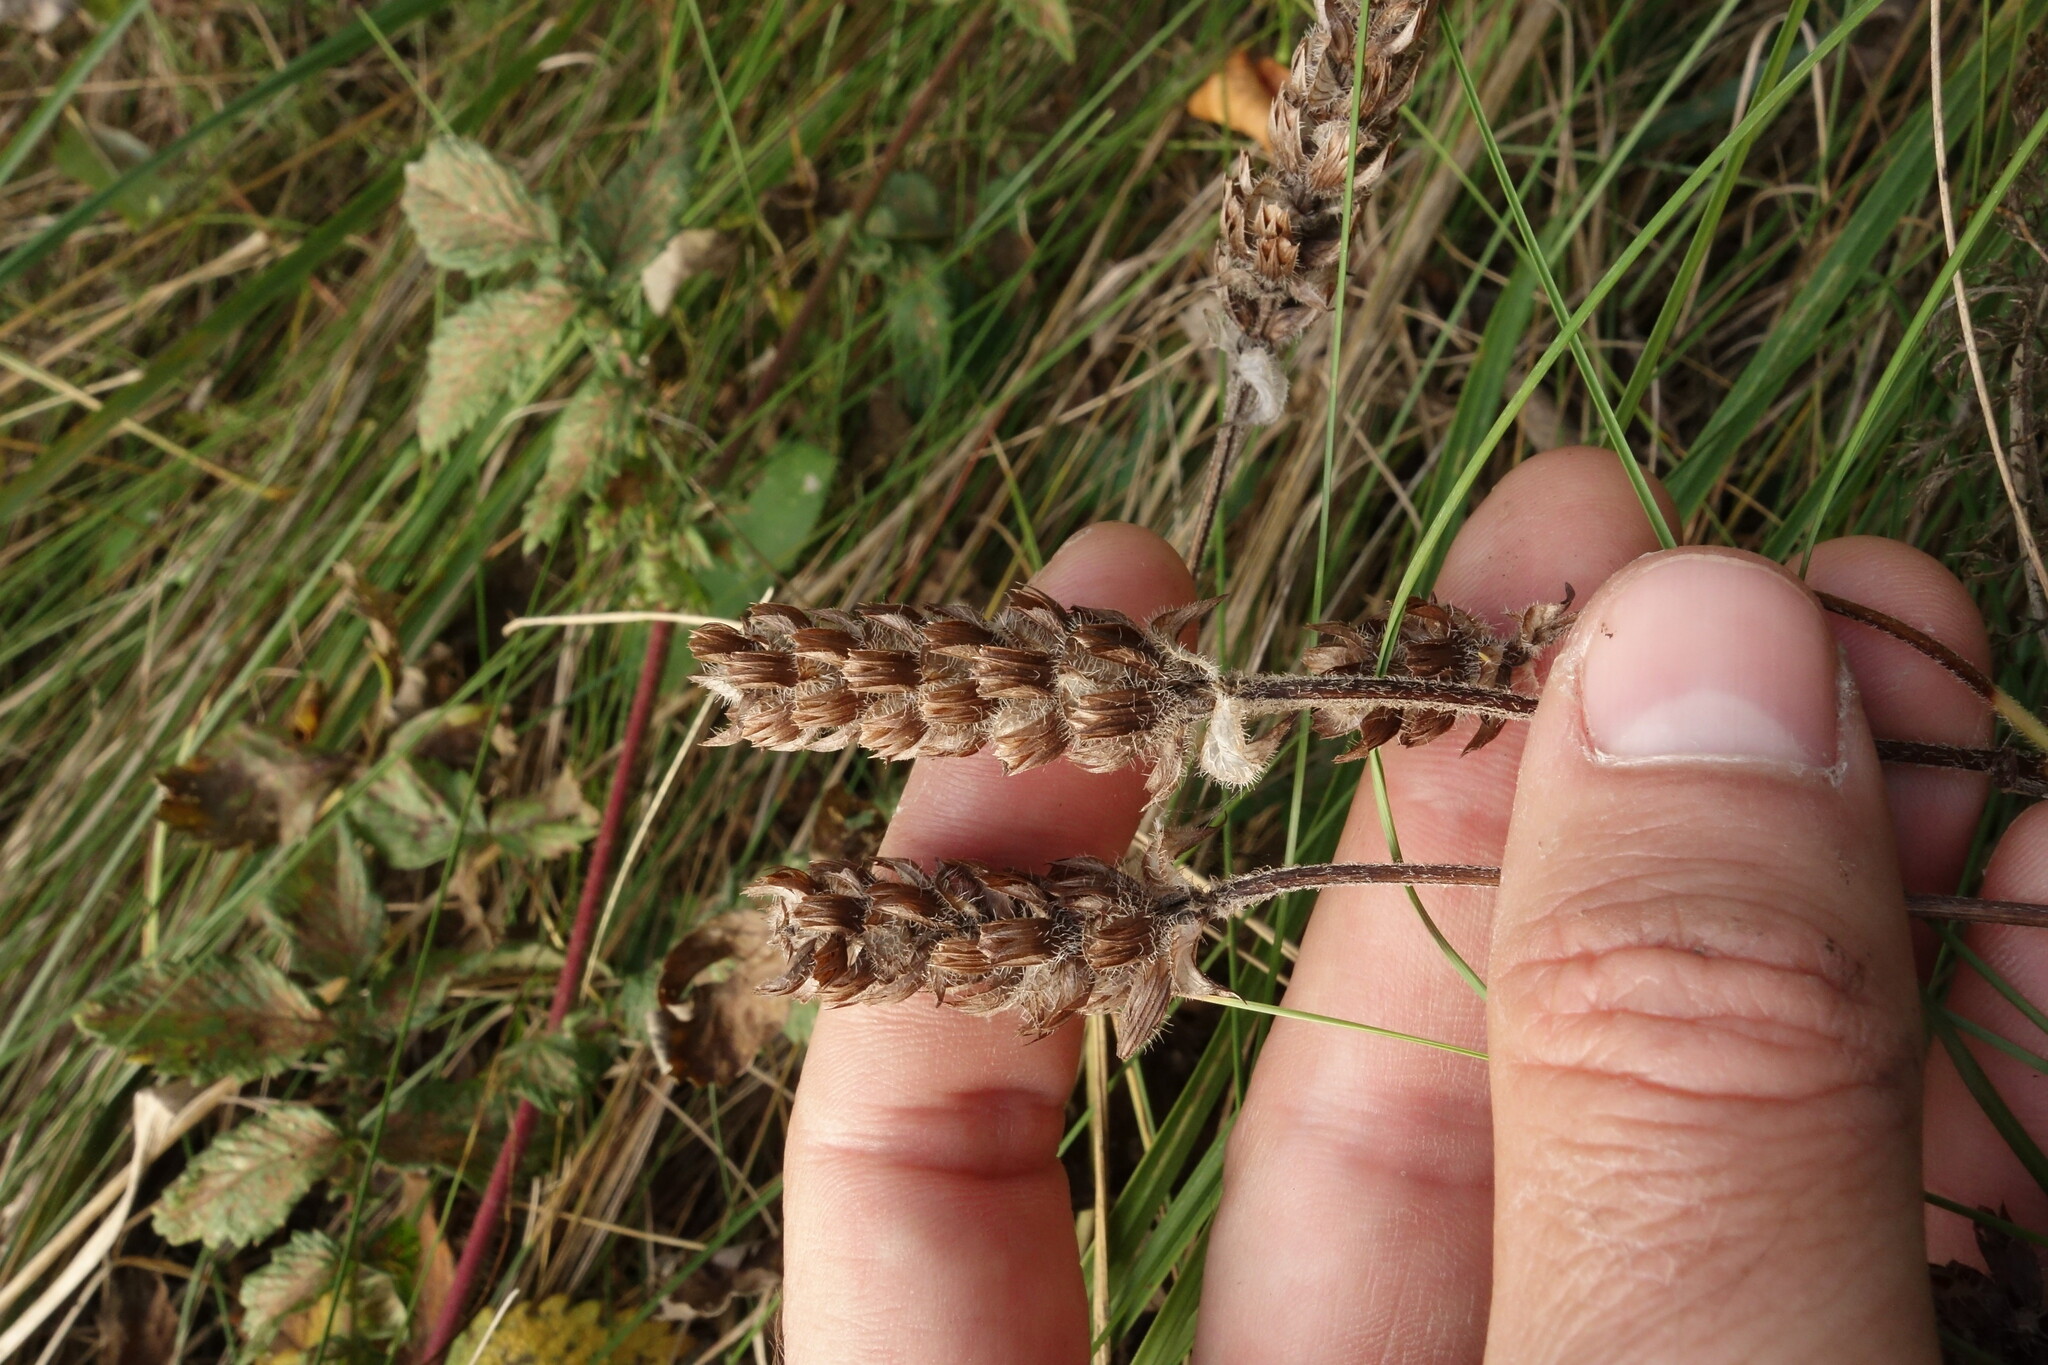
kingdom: Plantae
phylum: Tracheophyta
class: Magnoliopsida
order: Lamiales
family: Lamiaceae
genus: Prunella
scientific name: Prunella vulgaris
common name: Heal-all
